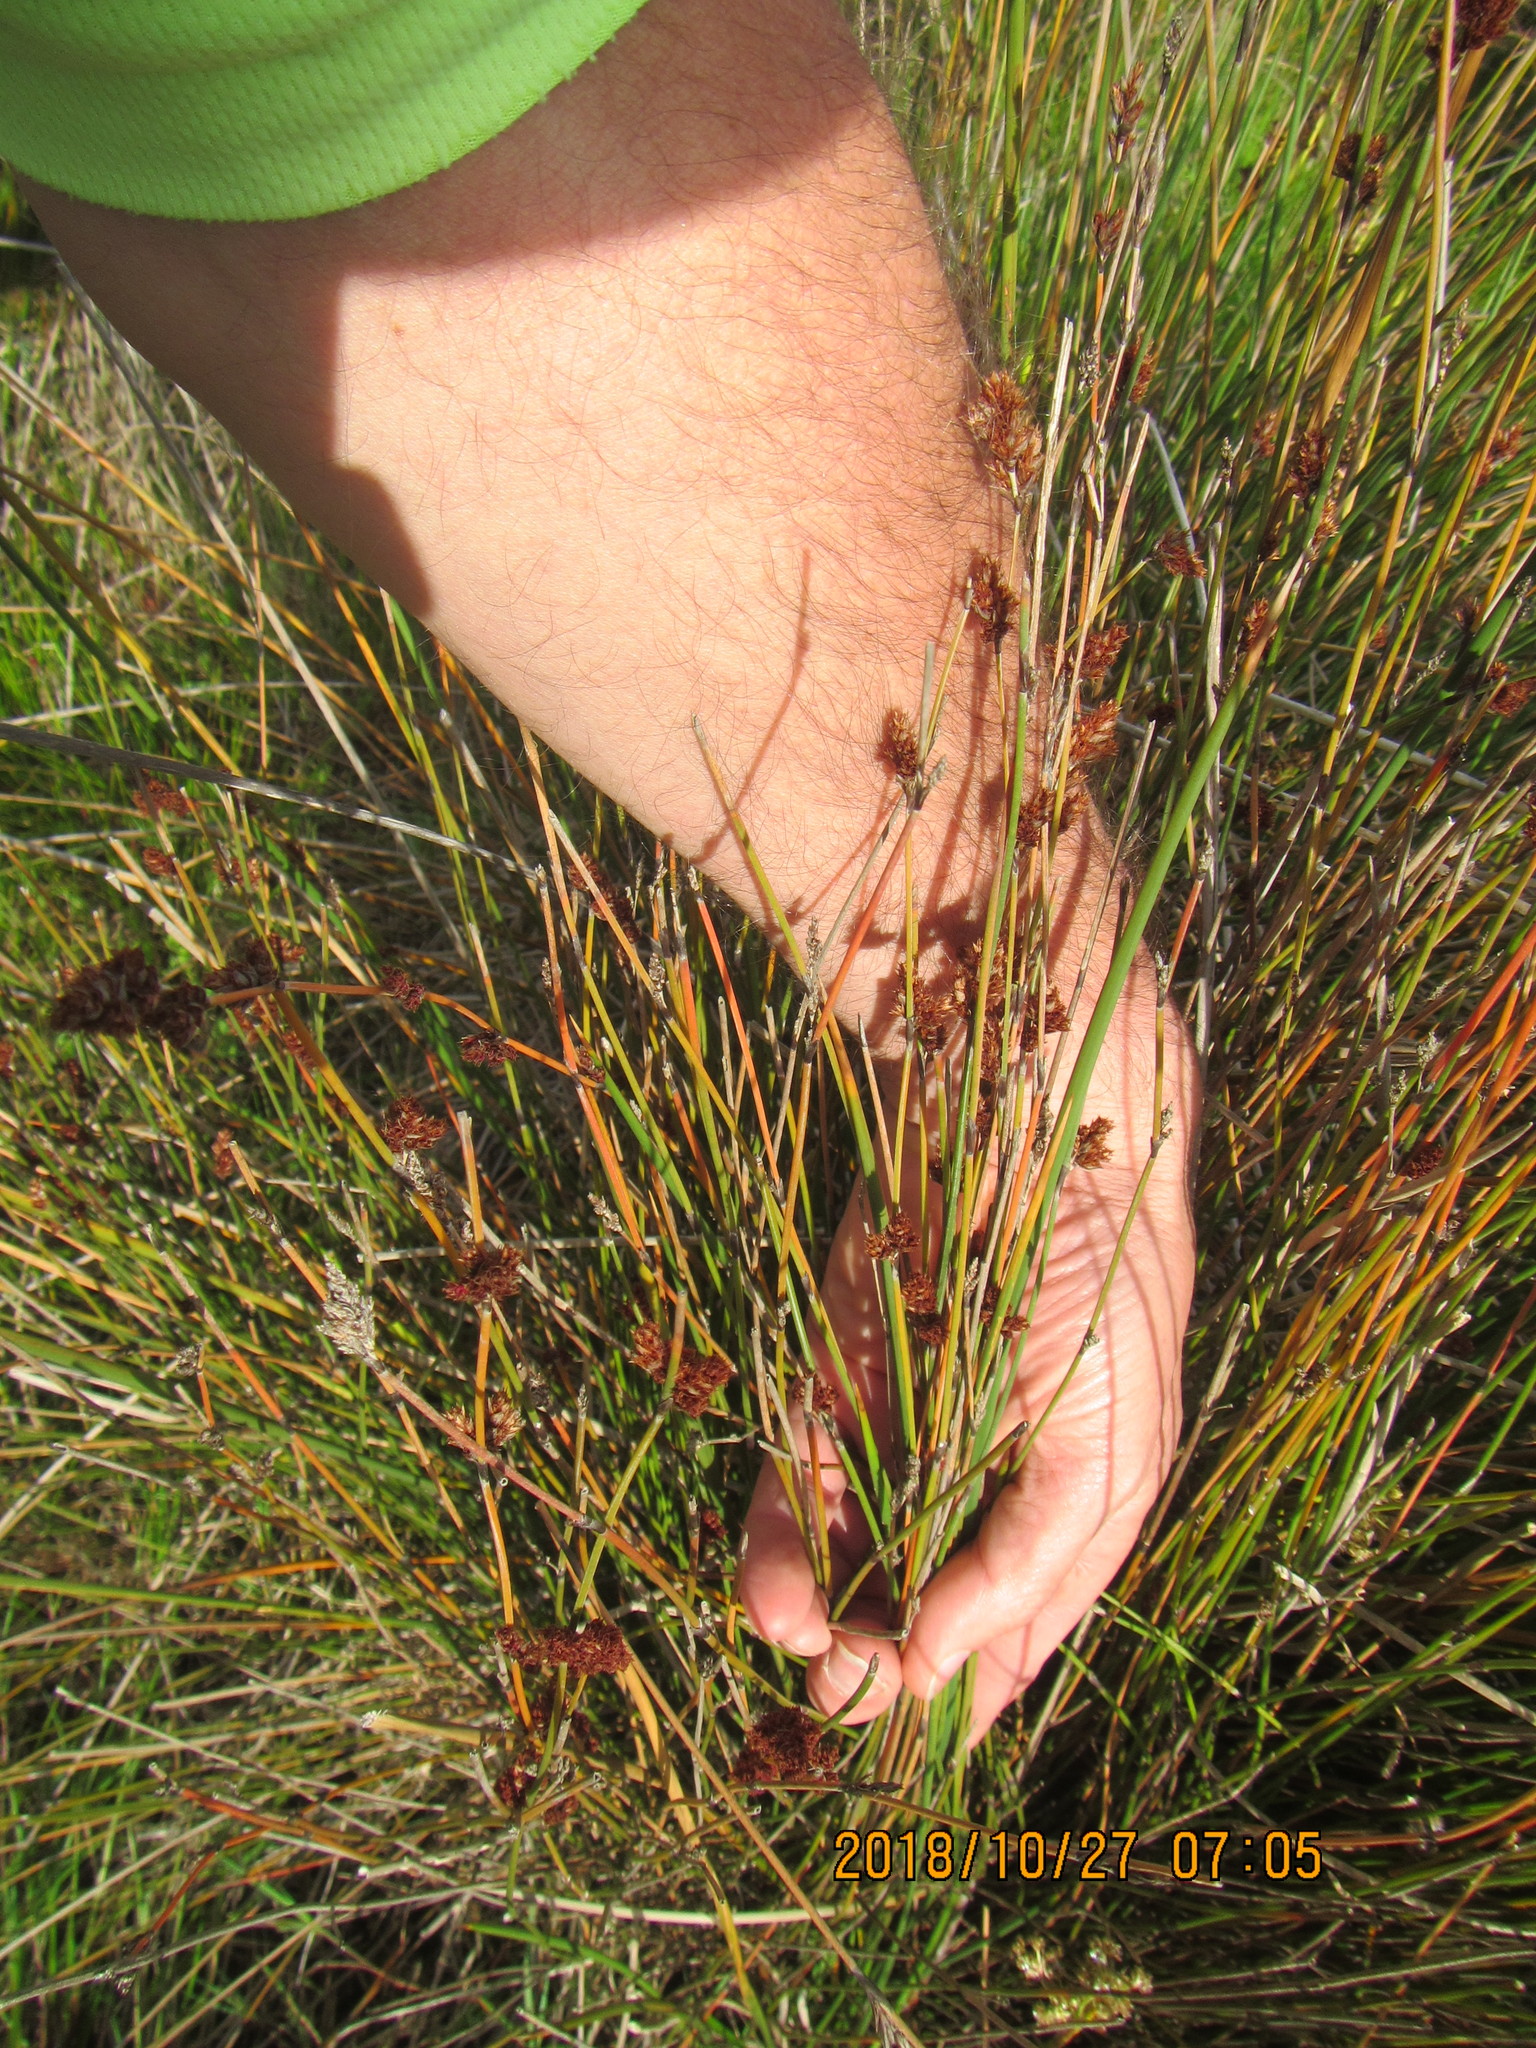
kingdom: Plantae
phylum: Tracheophyta
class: Liliopsida
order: Poales
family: Restionaceae
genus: Apodasmia
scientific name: Apodasmia similis
